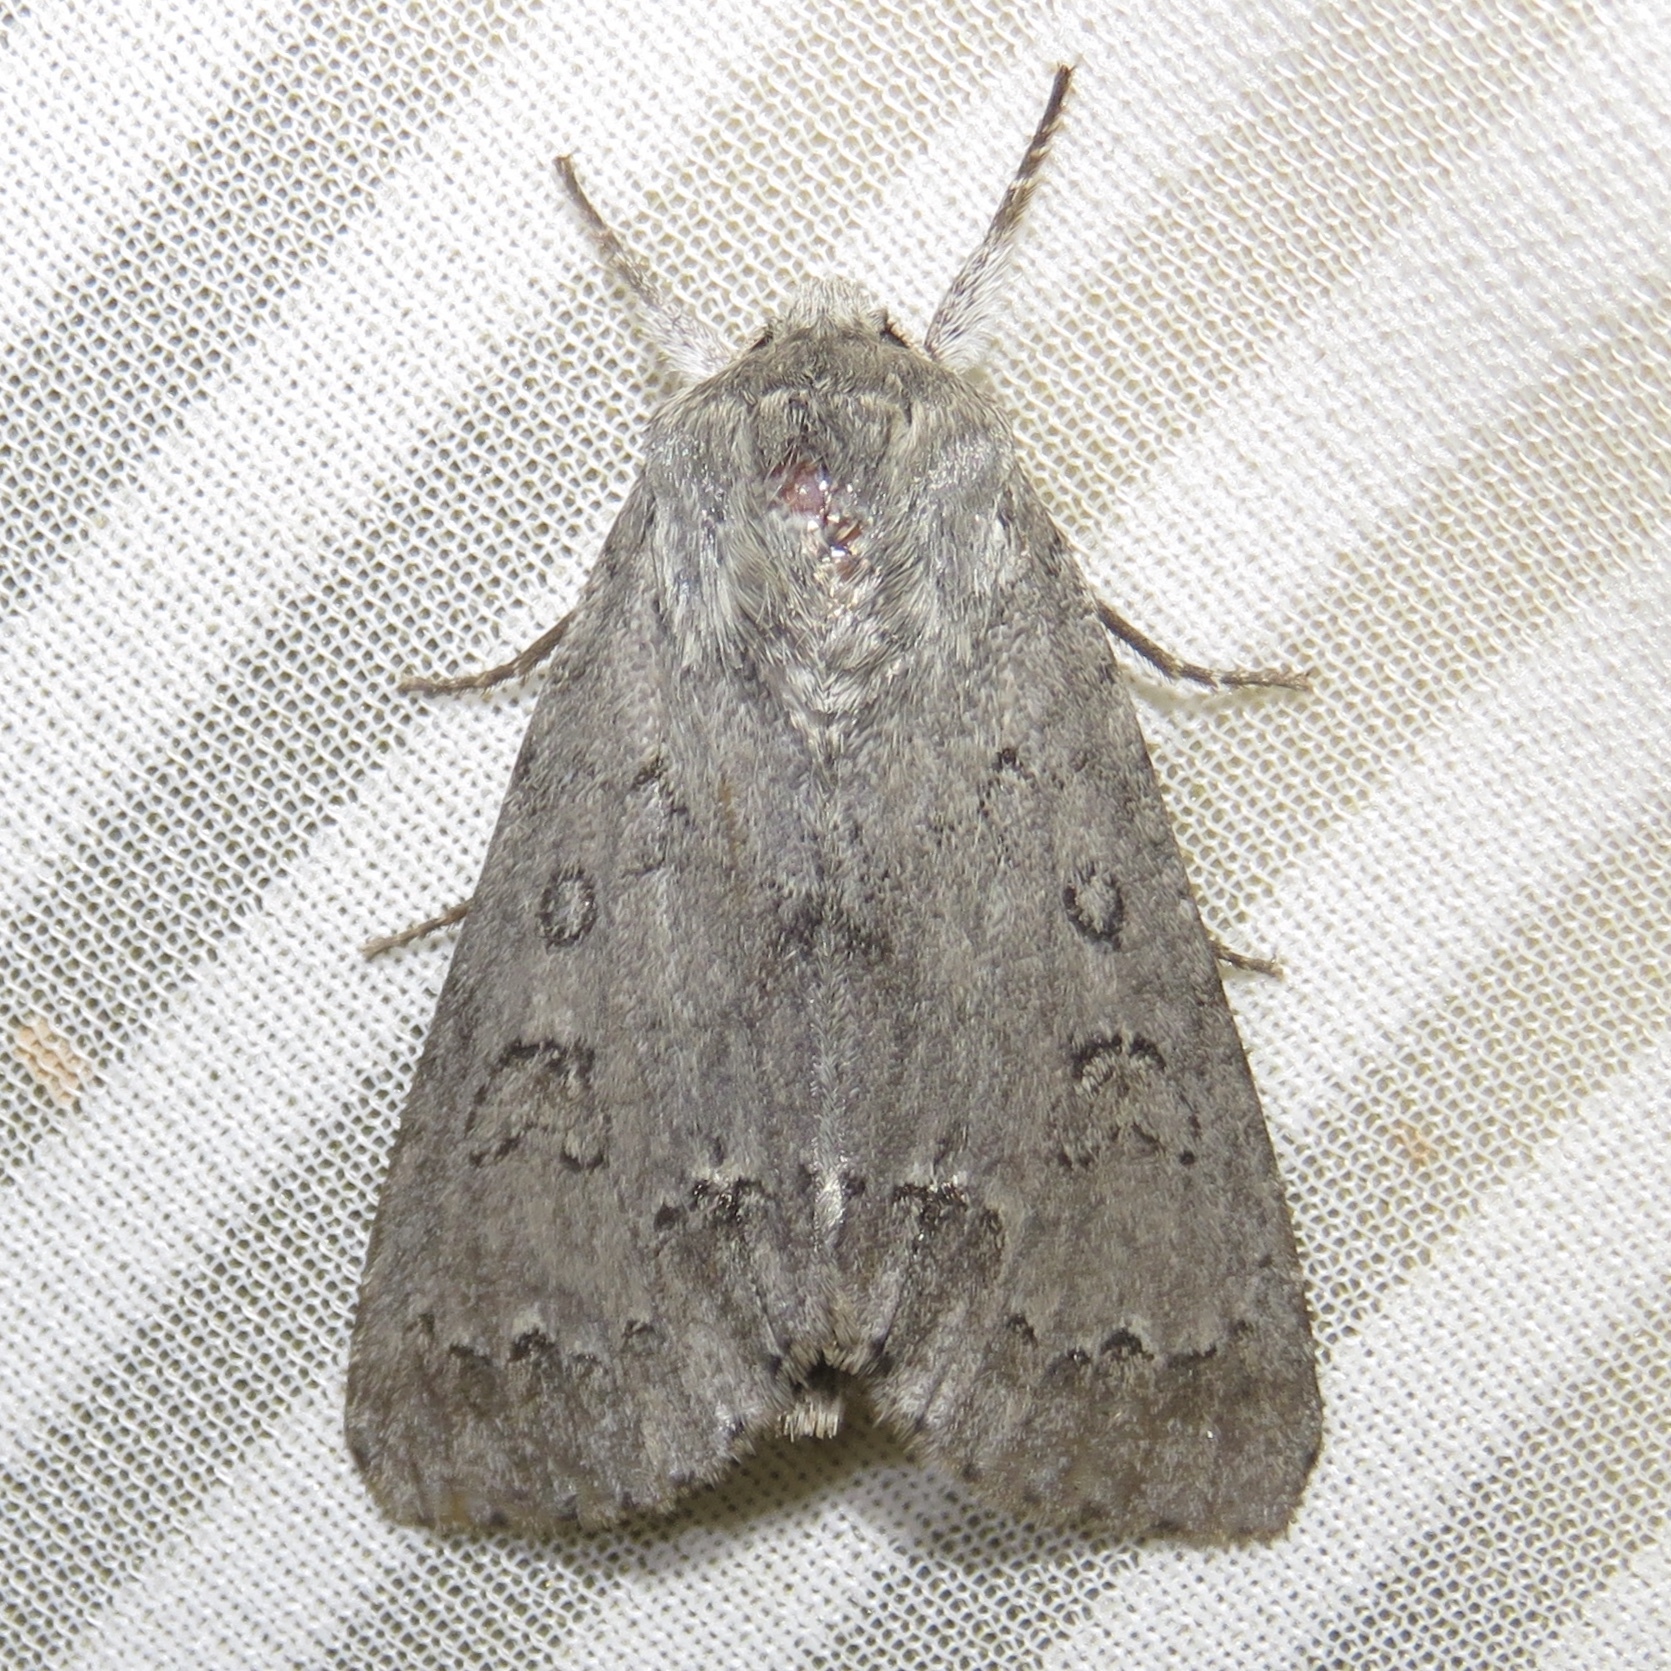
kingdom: Animalia
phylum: Arthropoda
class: Insecta
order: Lepidoptera
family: Noctuidae
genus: Acronicta
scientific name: Acronicta insita
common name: Large gray dagger
